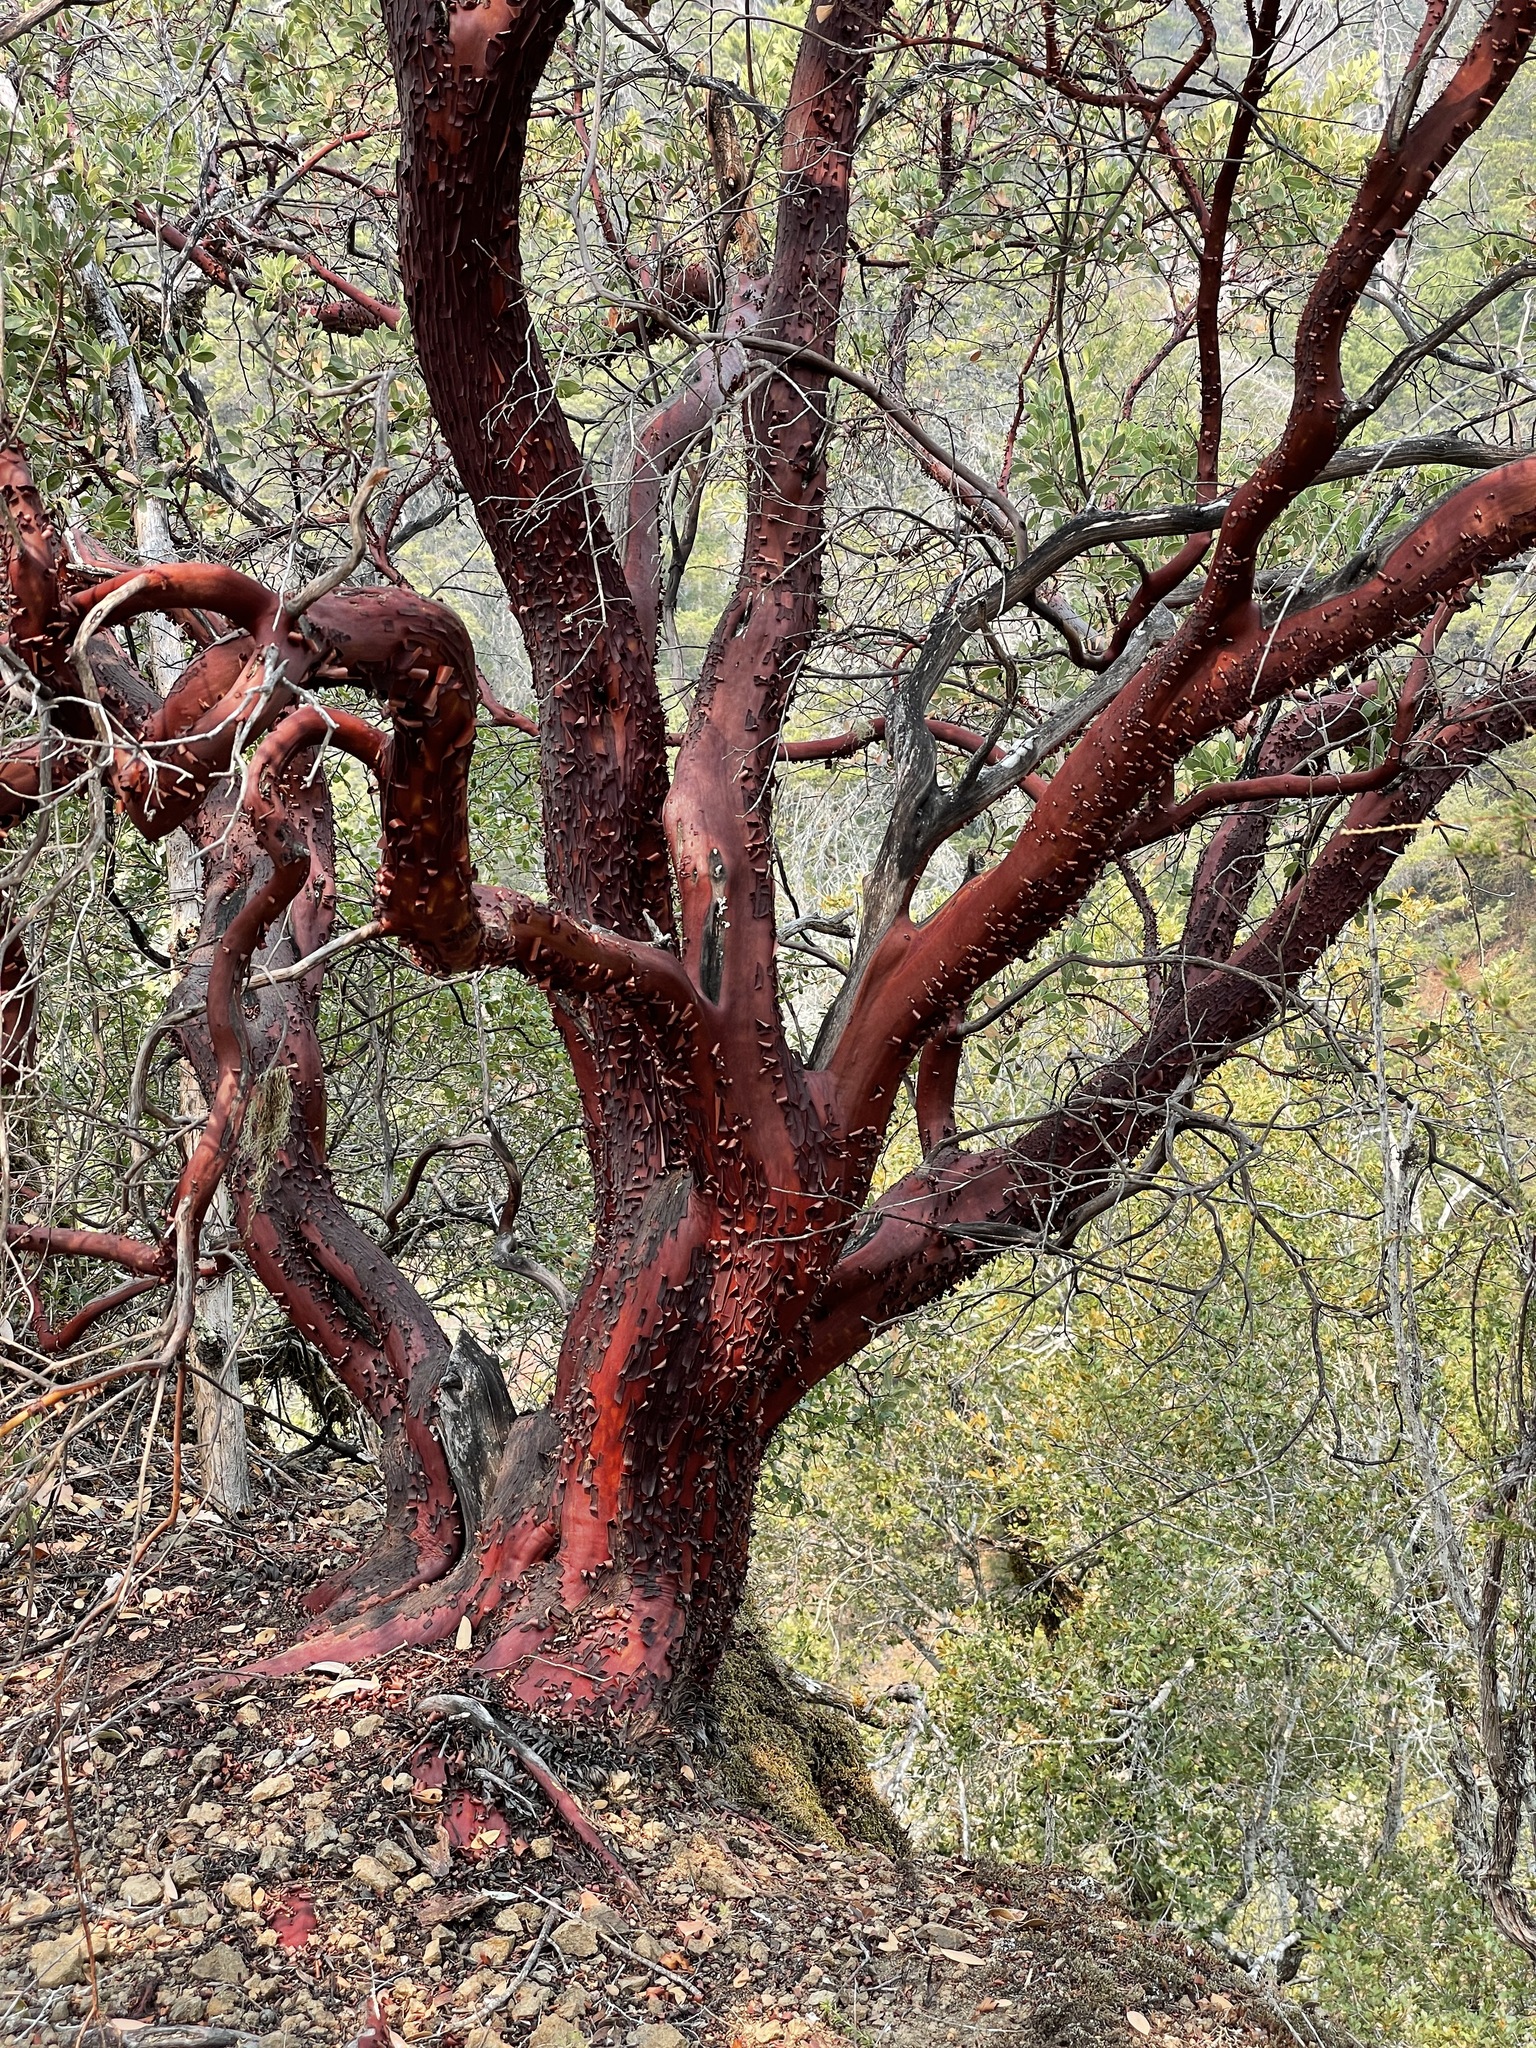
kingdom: Plantae
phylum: Tracheophyta
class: Magnoliopsida
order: Ericales
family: Ericaceae
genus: Arctostaphylos
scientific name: Arctostaphylos manzanita
